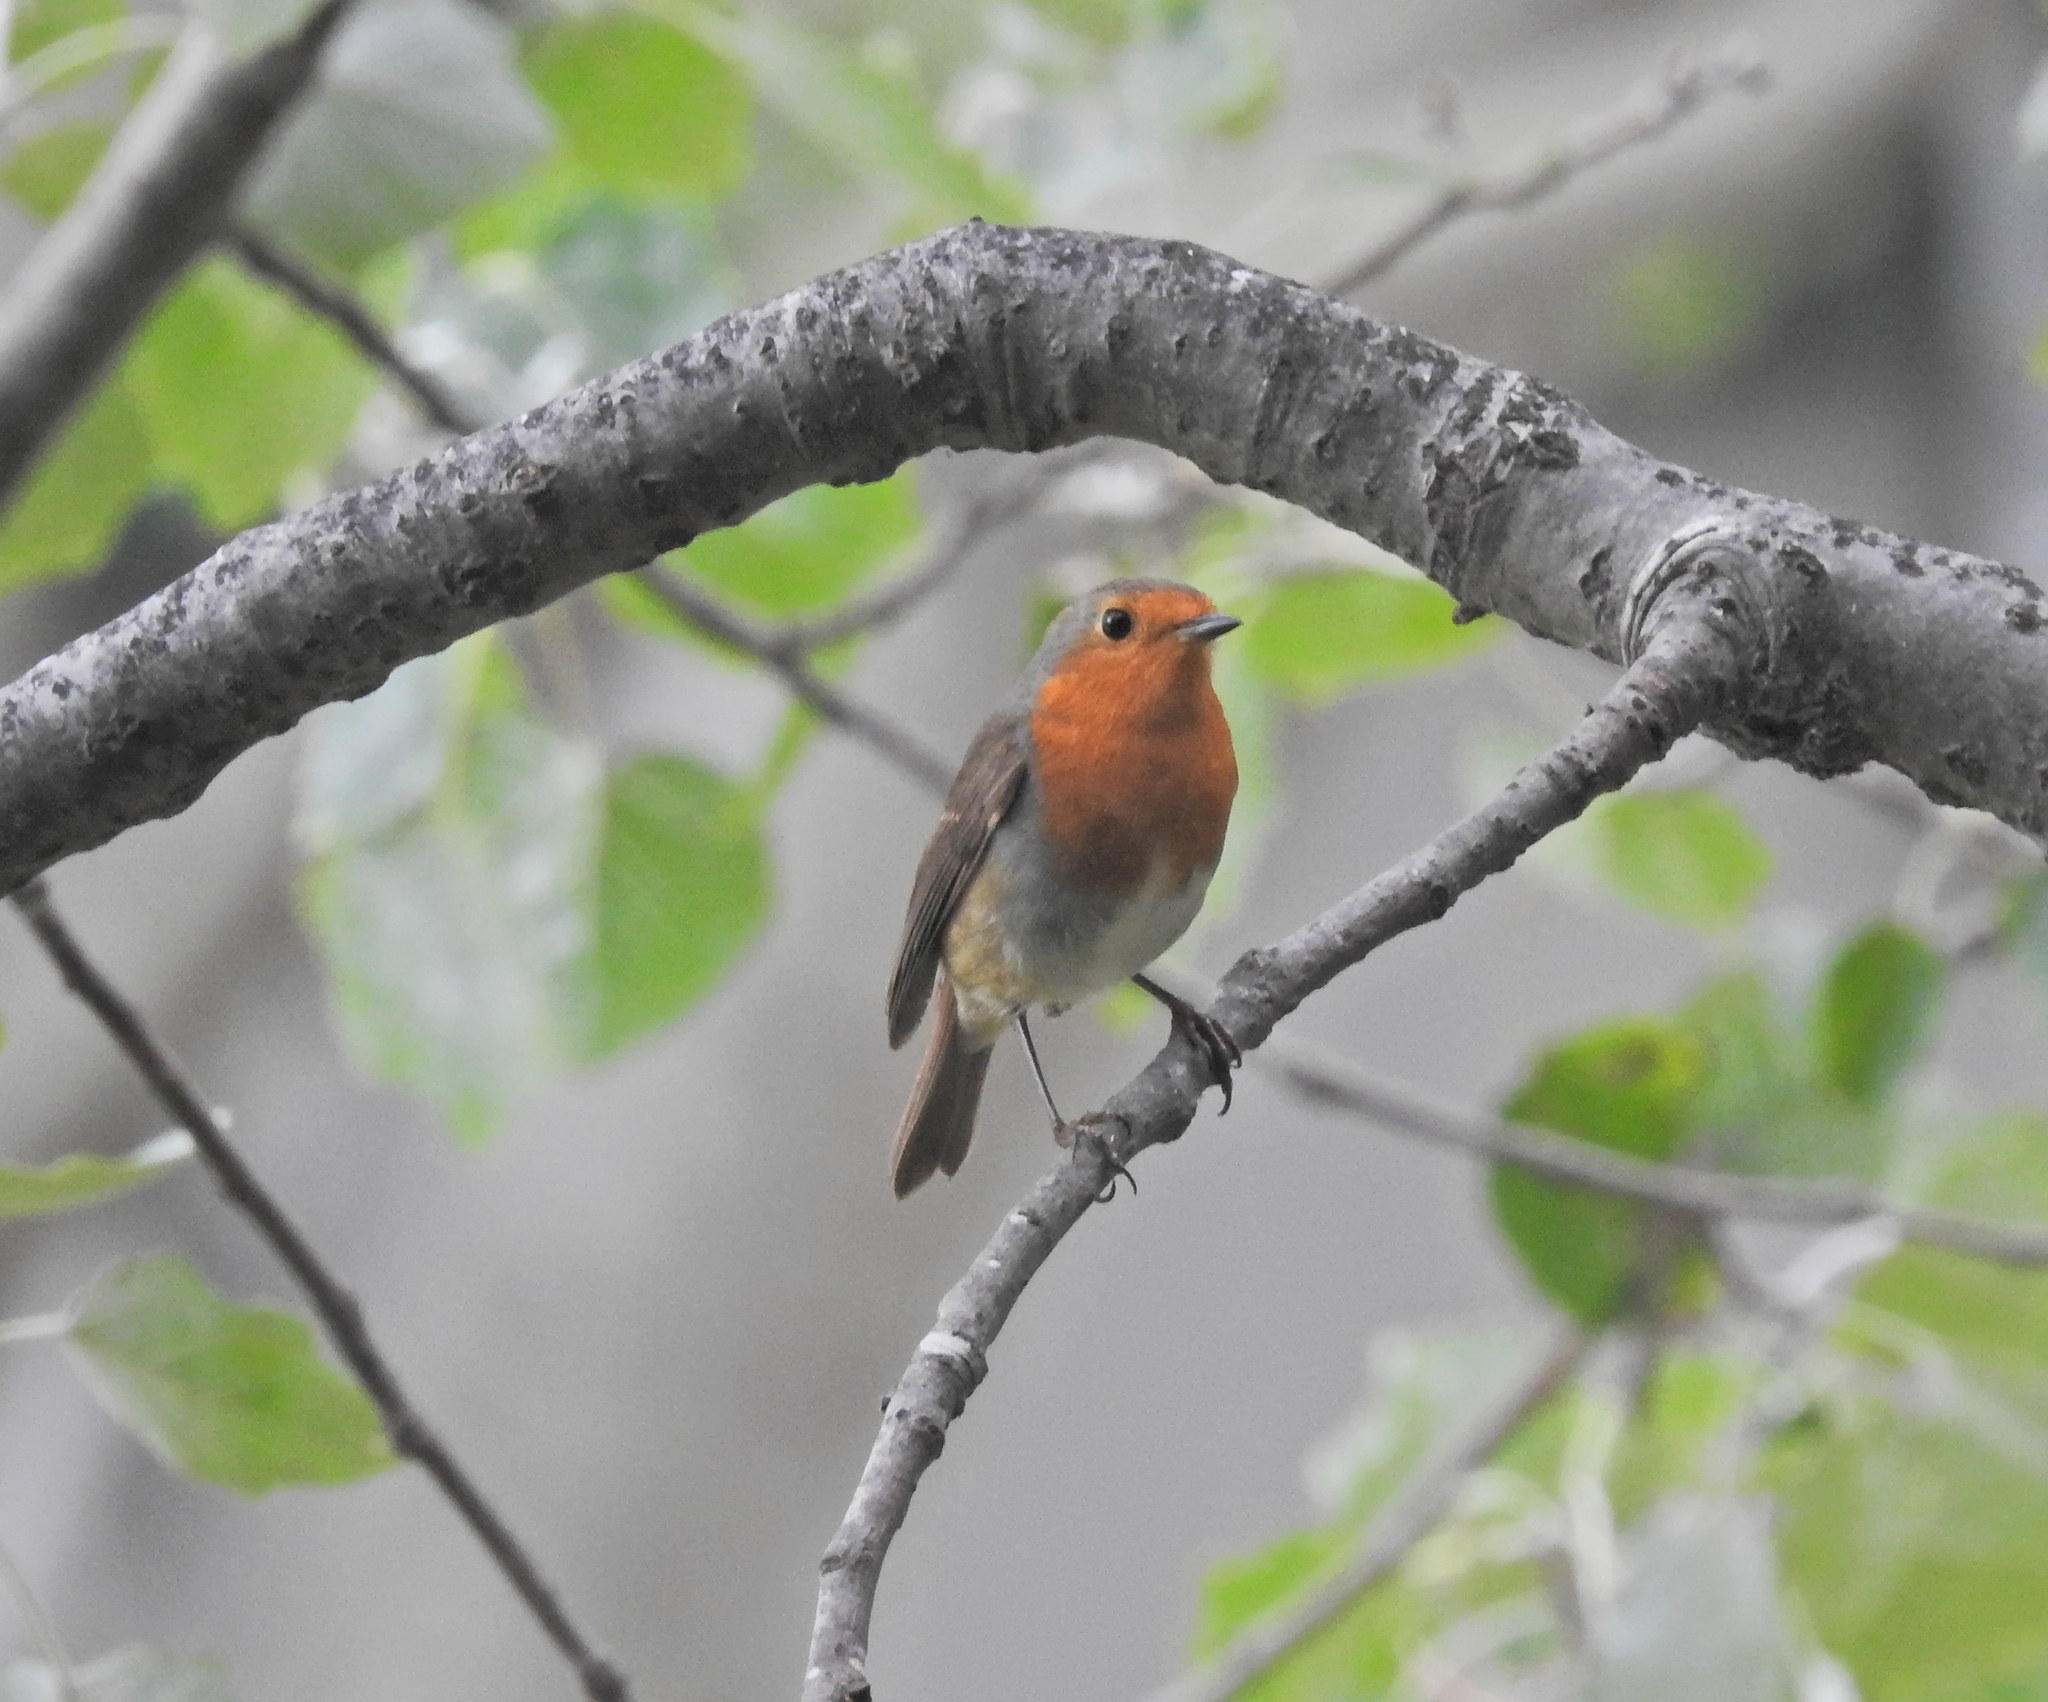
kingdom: Animalia
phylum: Chordata
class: Aves
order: Passeriformes
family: Muscicapidae
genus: Erithacus
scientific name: Erithacus rubecula
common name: European robin
